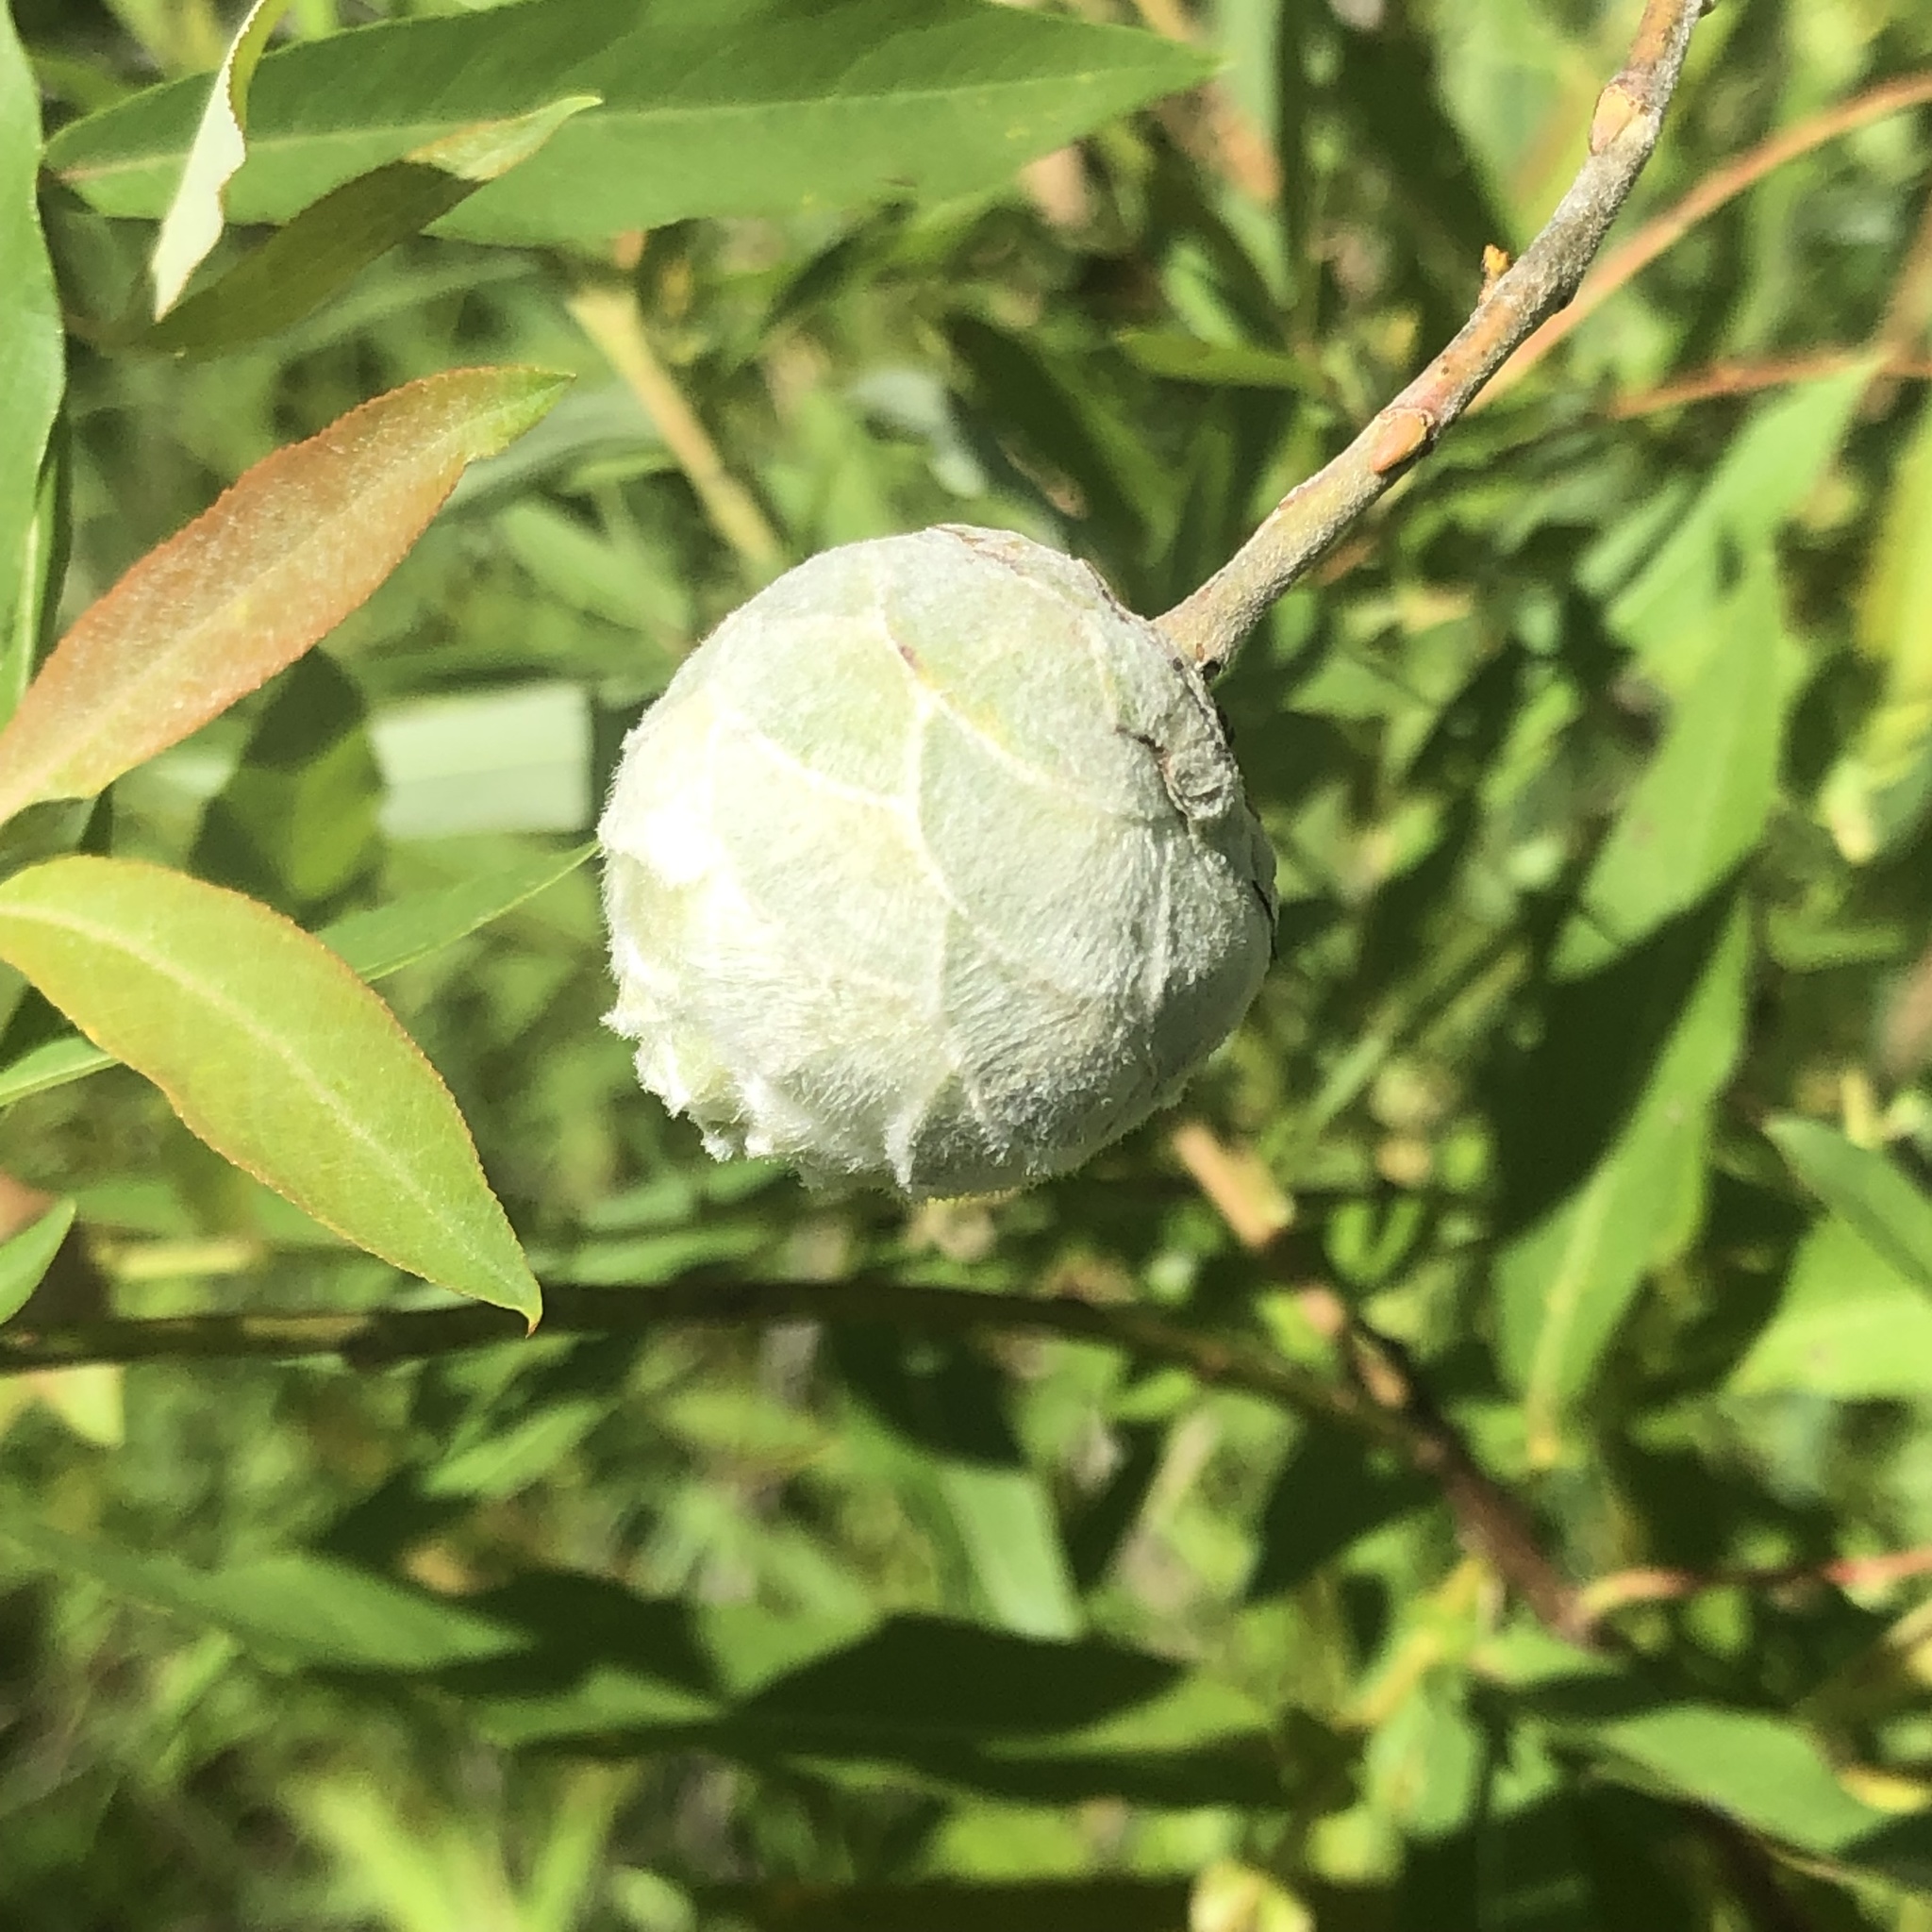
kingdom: Animalia
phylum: Arthropoda
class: Insecta
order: Diptera
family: Cecidomyiidae
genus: Rabdophaga
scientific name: Rabdophaga strobiloides
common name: Willow pinecone gall midge
